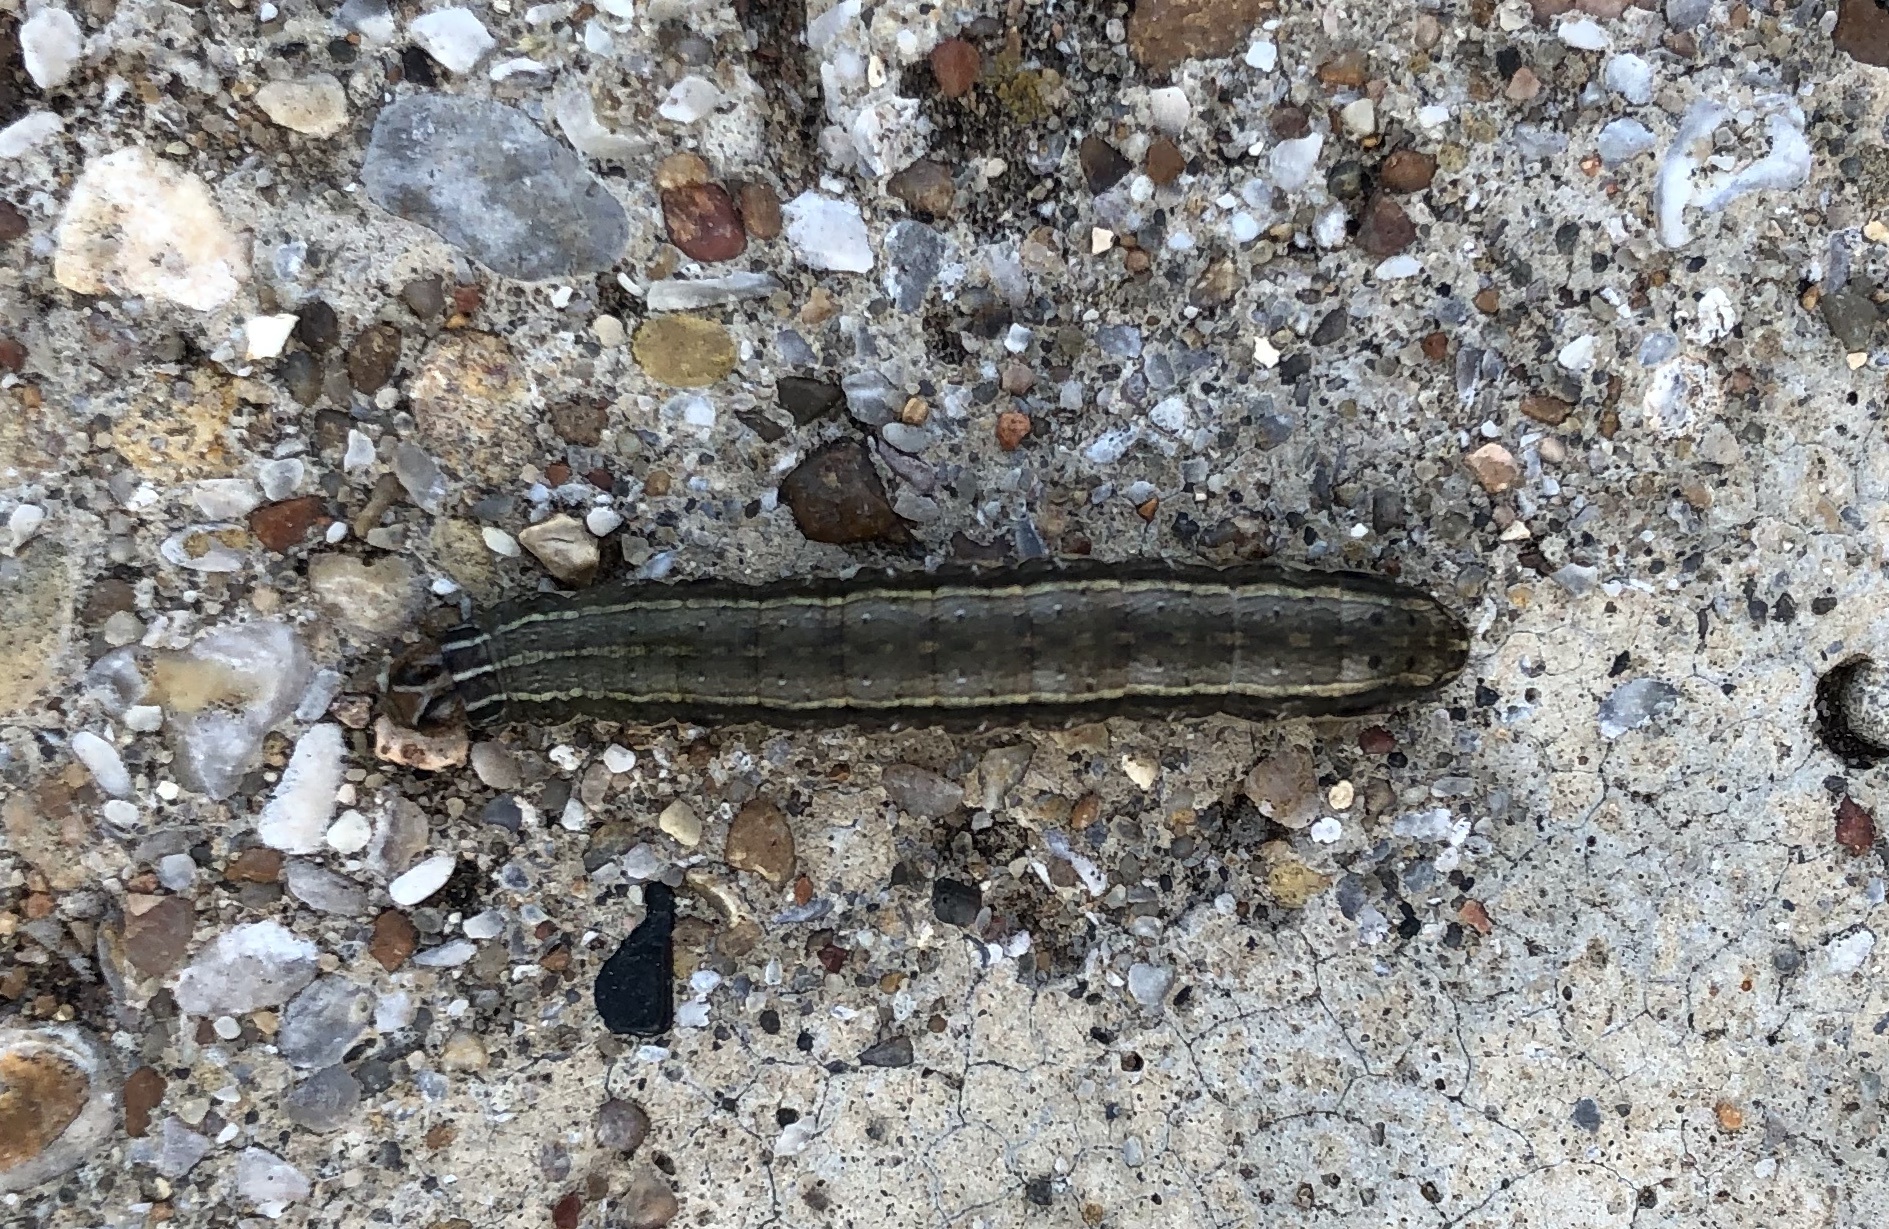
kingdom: Animalia
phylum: Arthropoda
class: Insecta
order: Lepidoptera
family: Noctuidae
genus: Spodoptera
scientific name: Spodoptera frugiperda
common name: Fall armyworm
